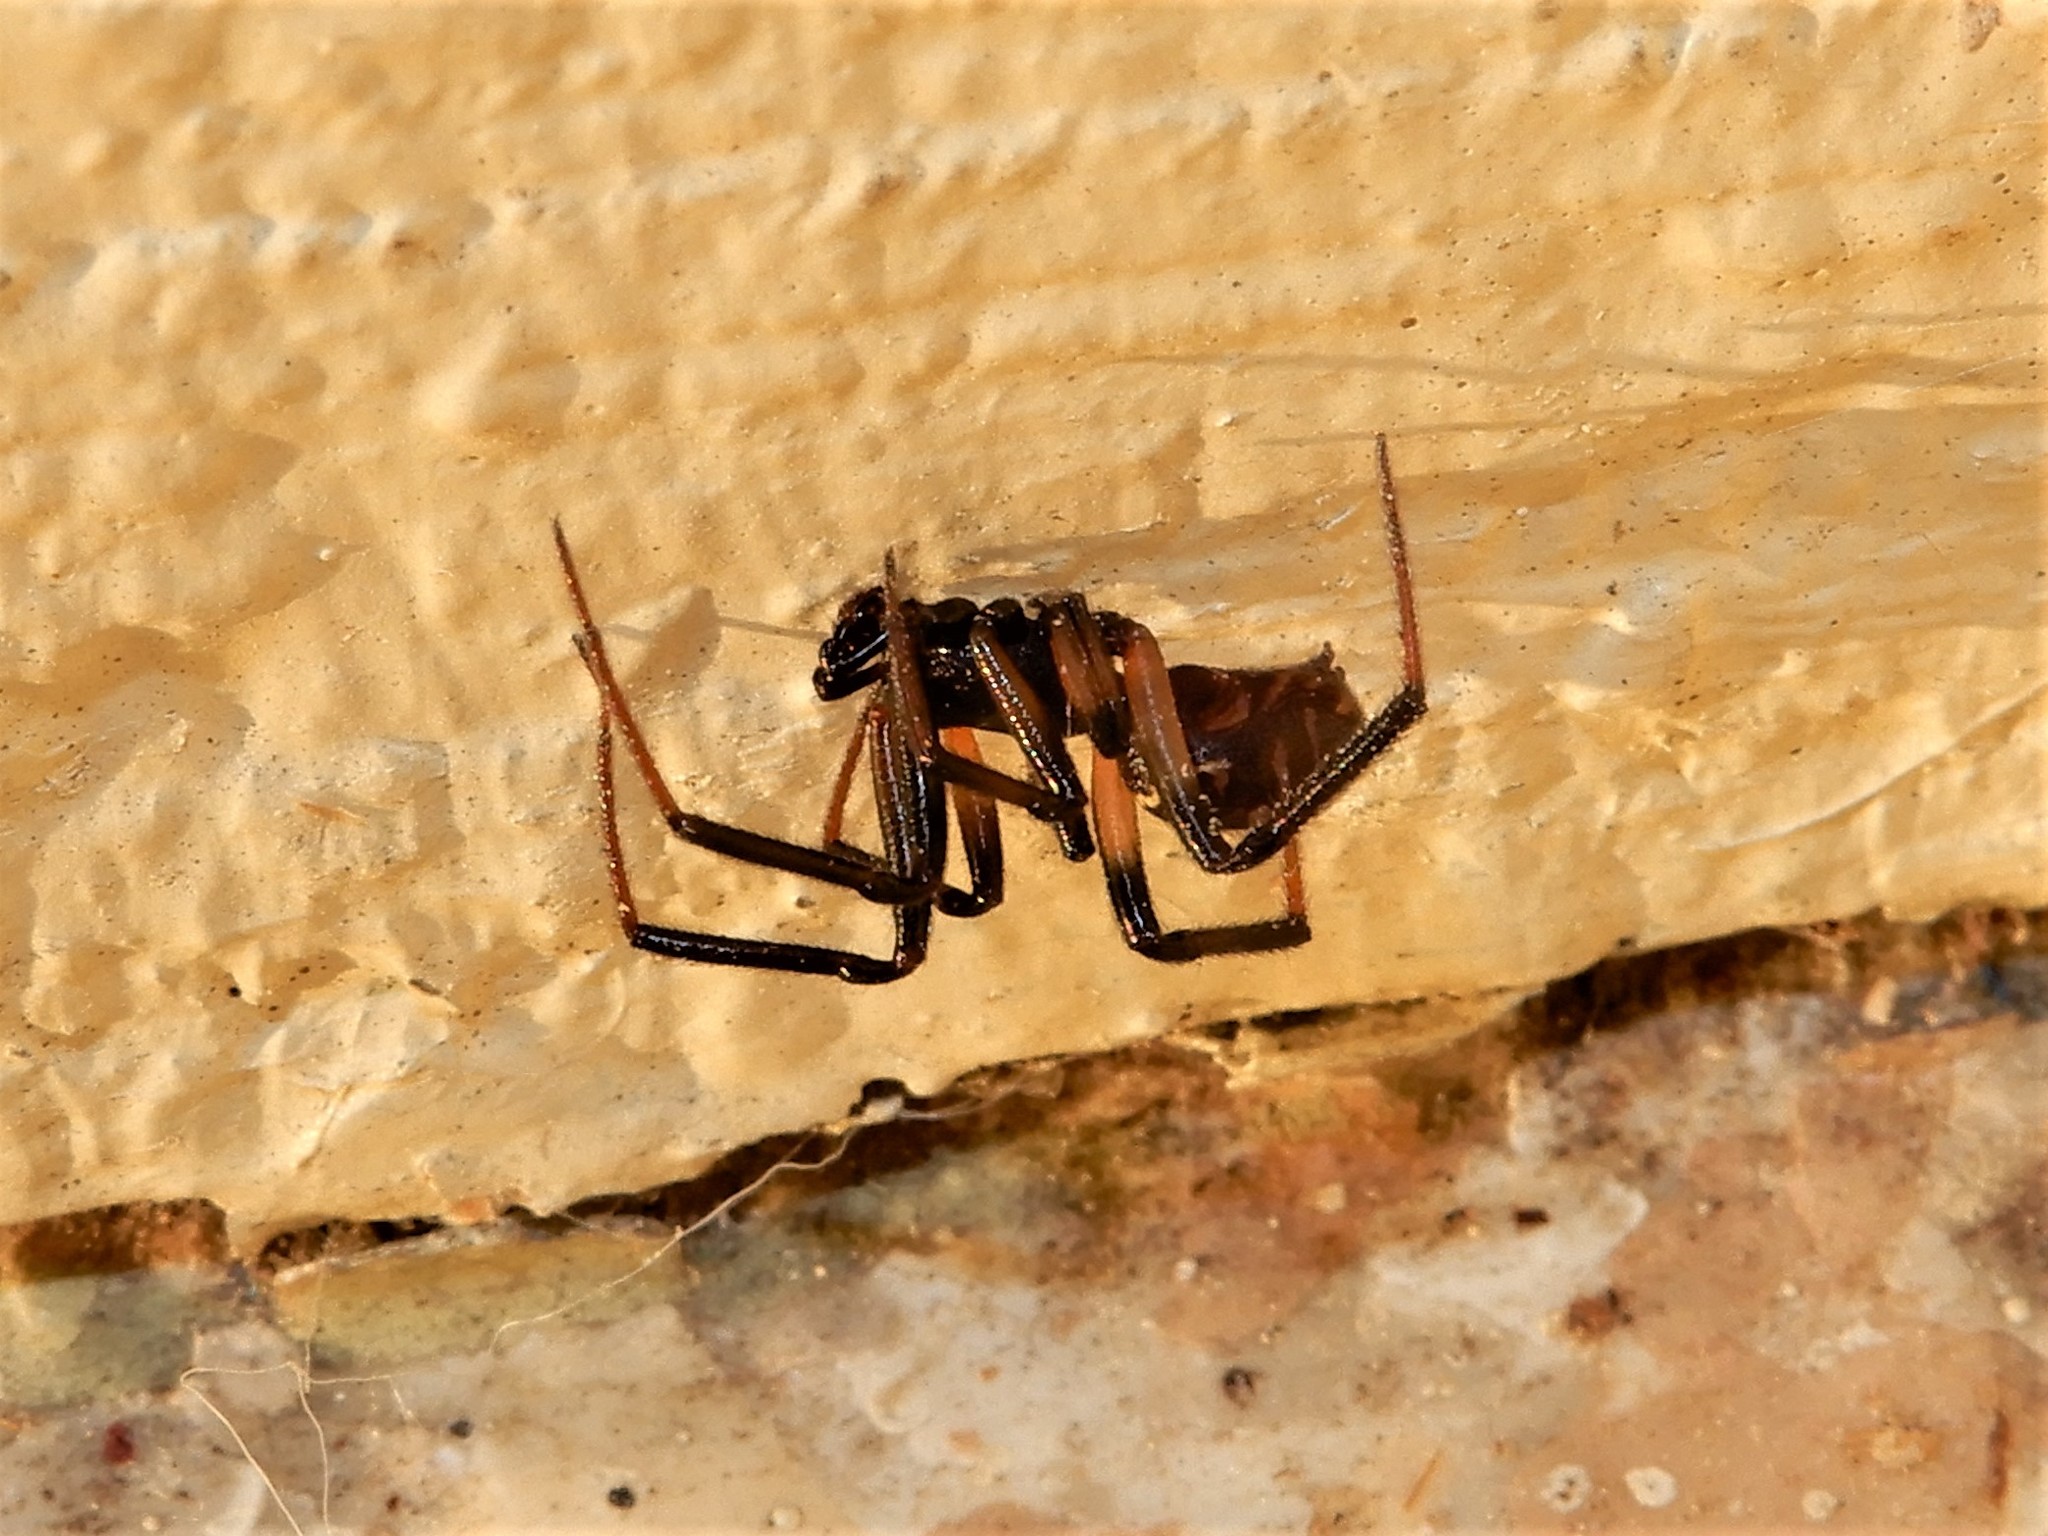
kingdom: Animalia
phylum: Arthropoda
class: Arachnida
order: Araneae
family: Theridiidae
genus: Steatoda
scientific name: Steatoda capensis
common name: Cobweb weaver
